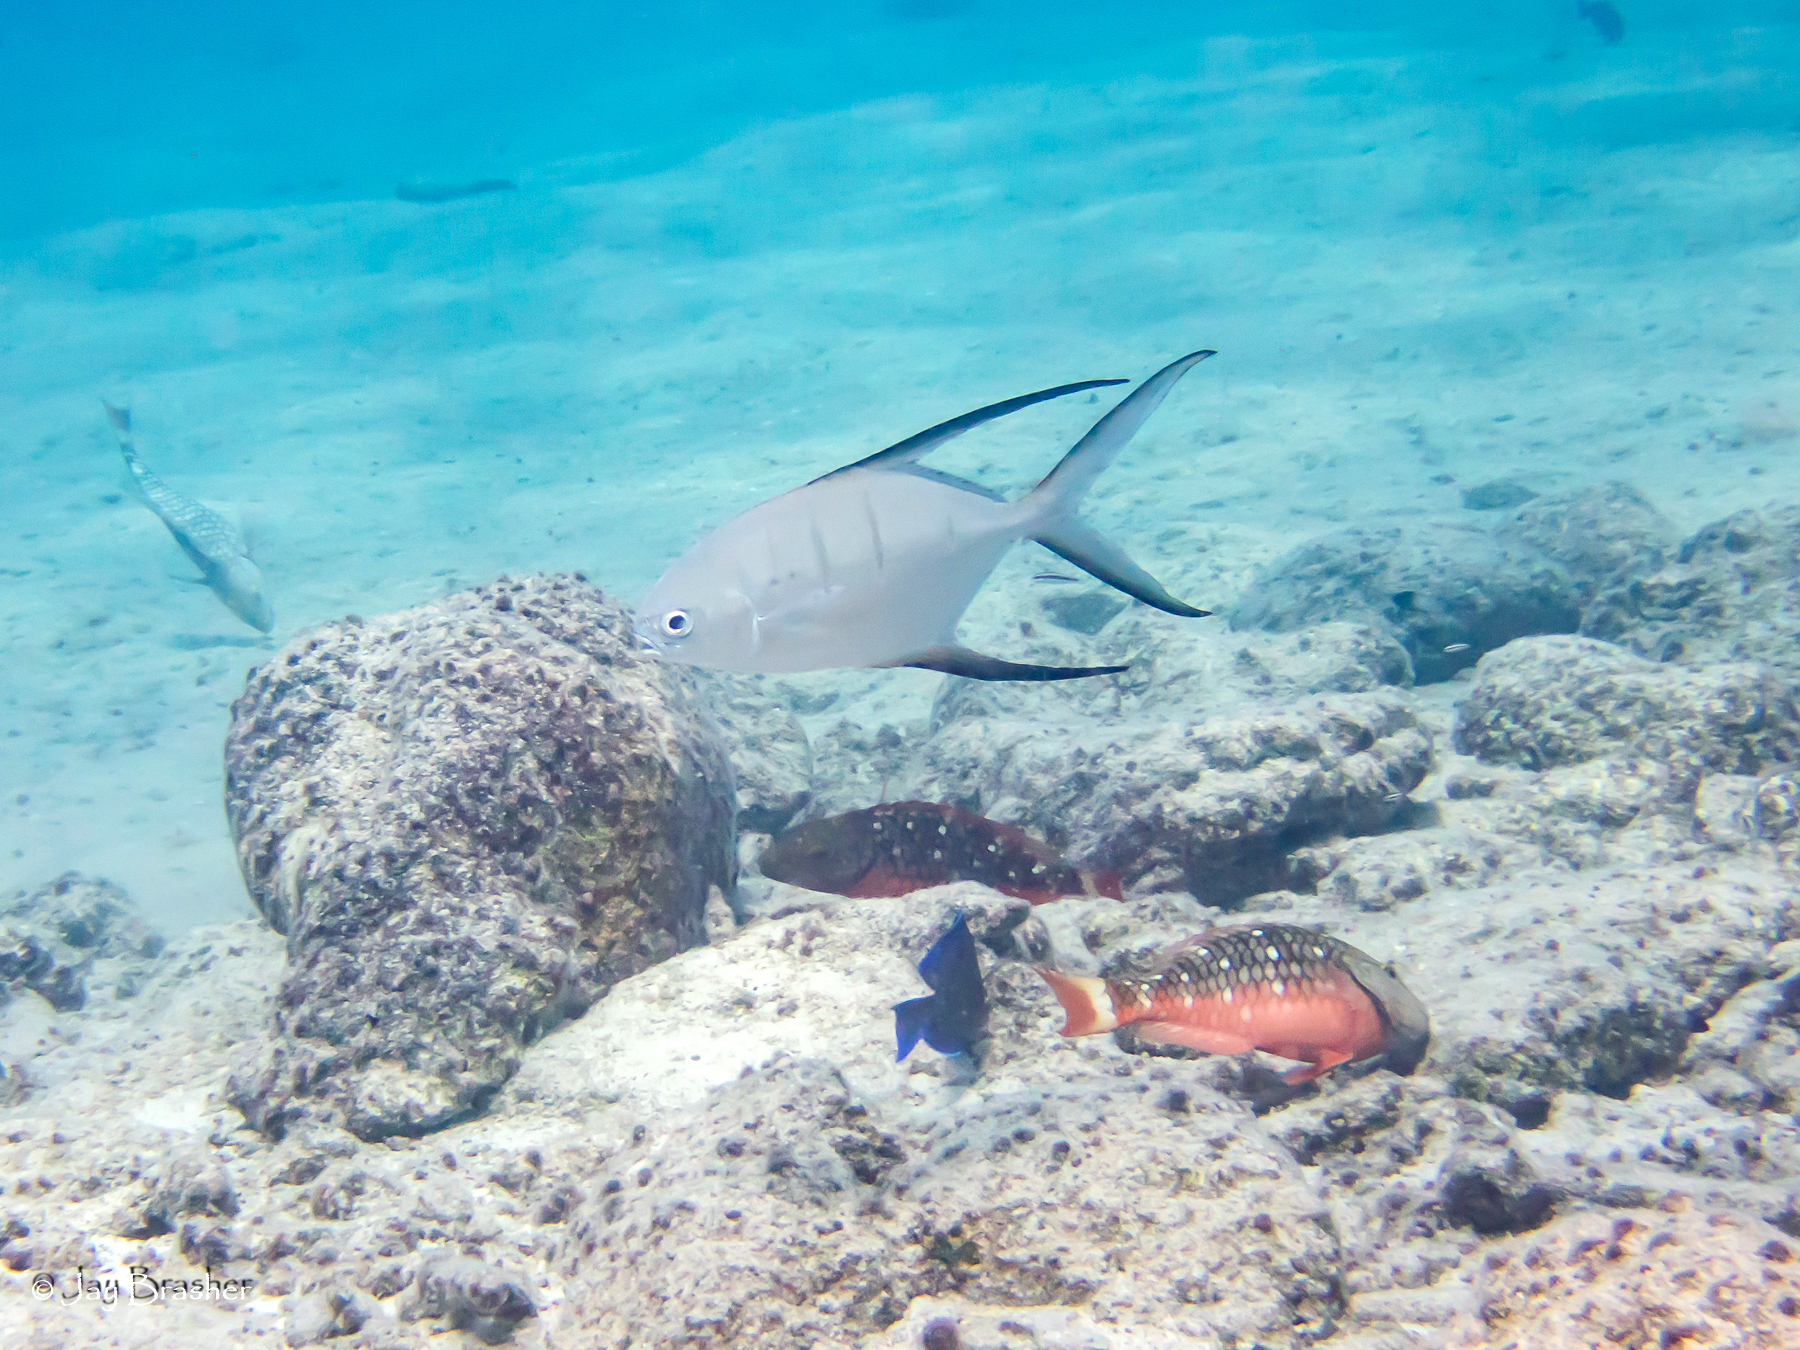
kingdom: Animalia
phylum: Chordata
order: Perciformes
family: Carangidae
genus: Trachinotus
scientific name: Trachinotus goodei
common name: Palometa
